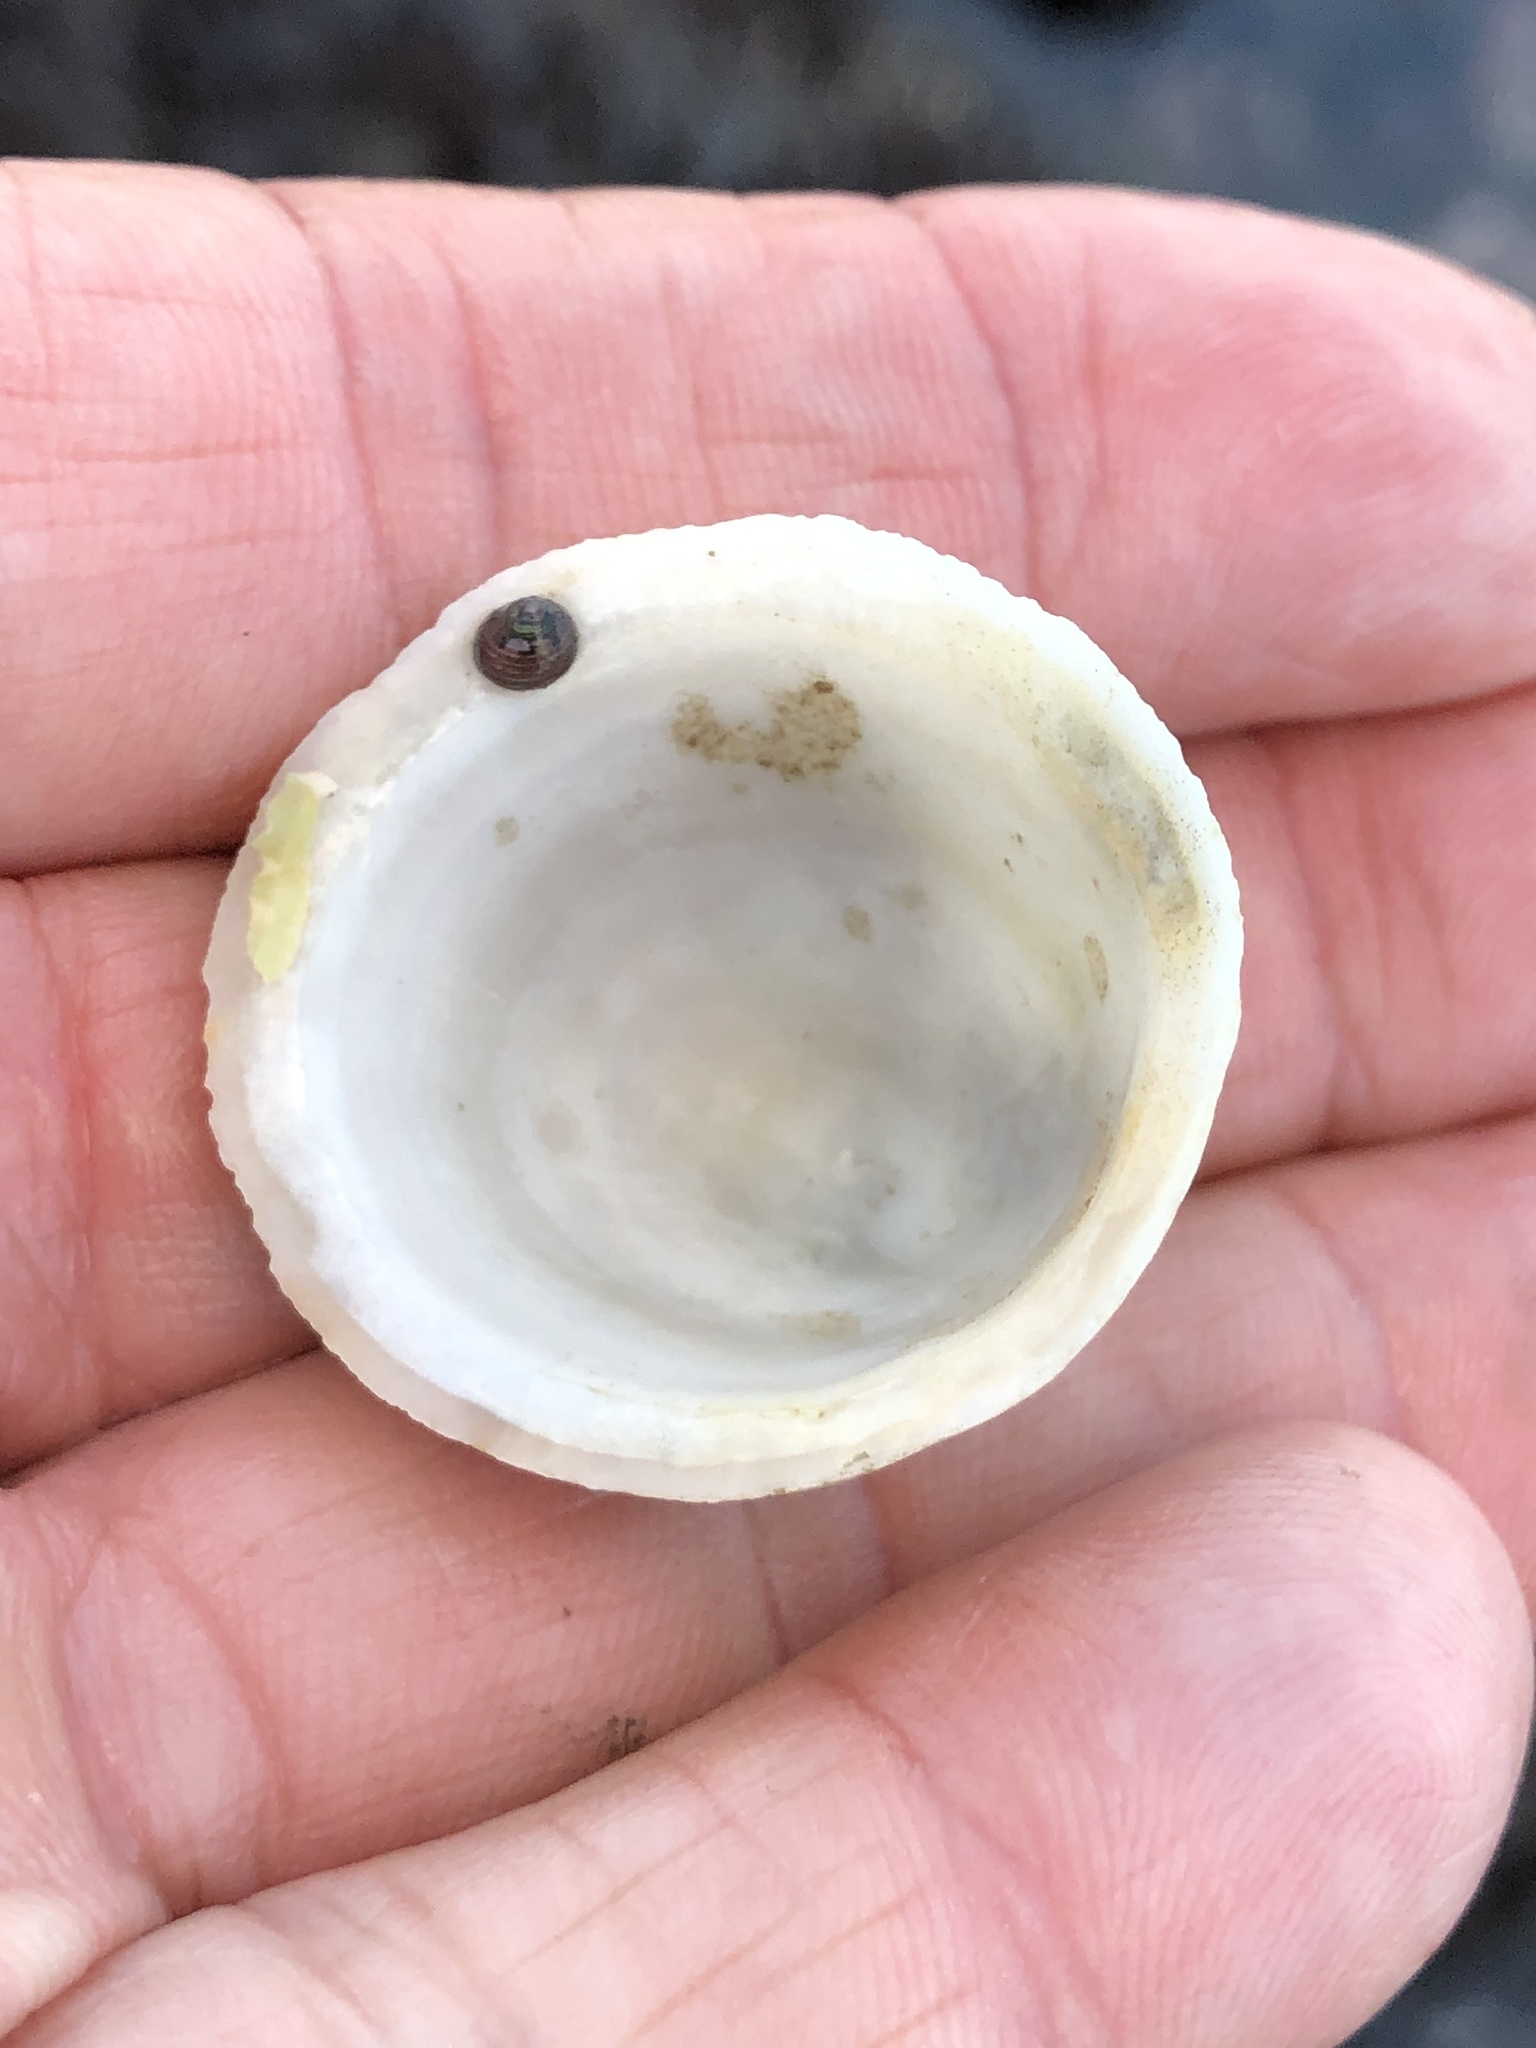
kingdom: Animalia
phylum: Mollusca
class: Gastropoda
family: Acmaeidae
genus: Acmaea
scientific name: Acmaea mitra
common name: Pacific white cap limpet
